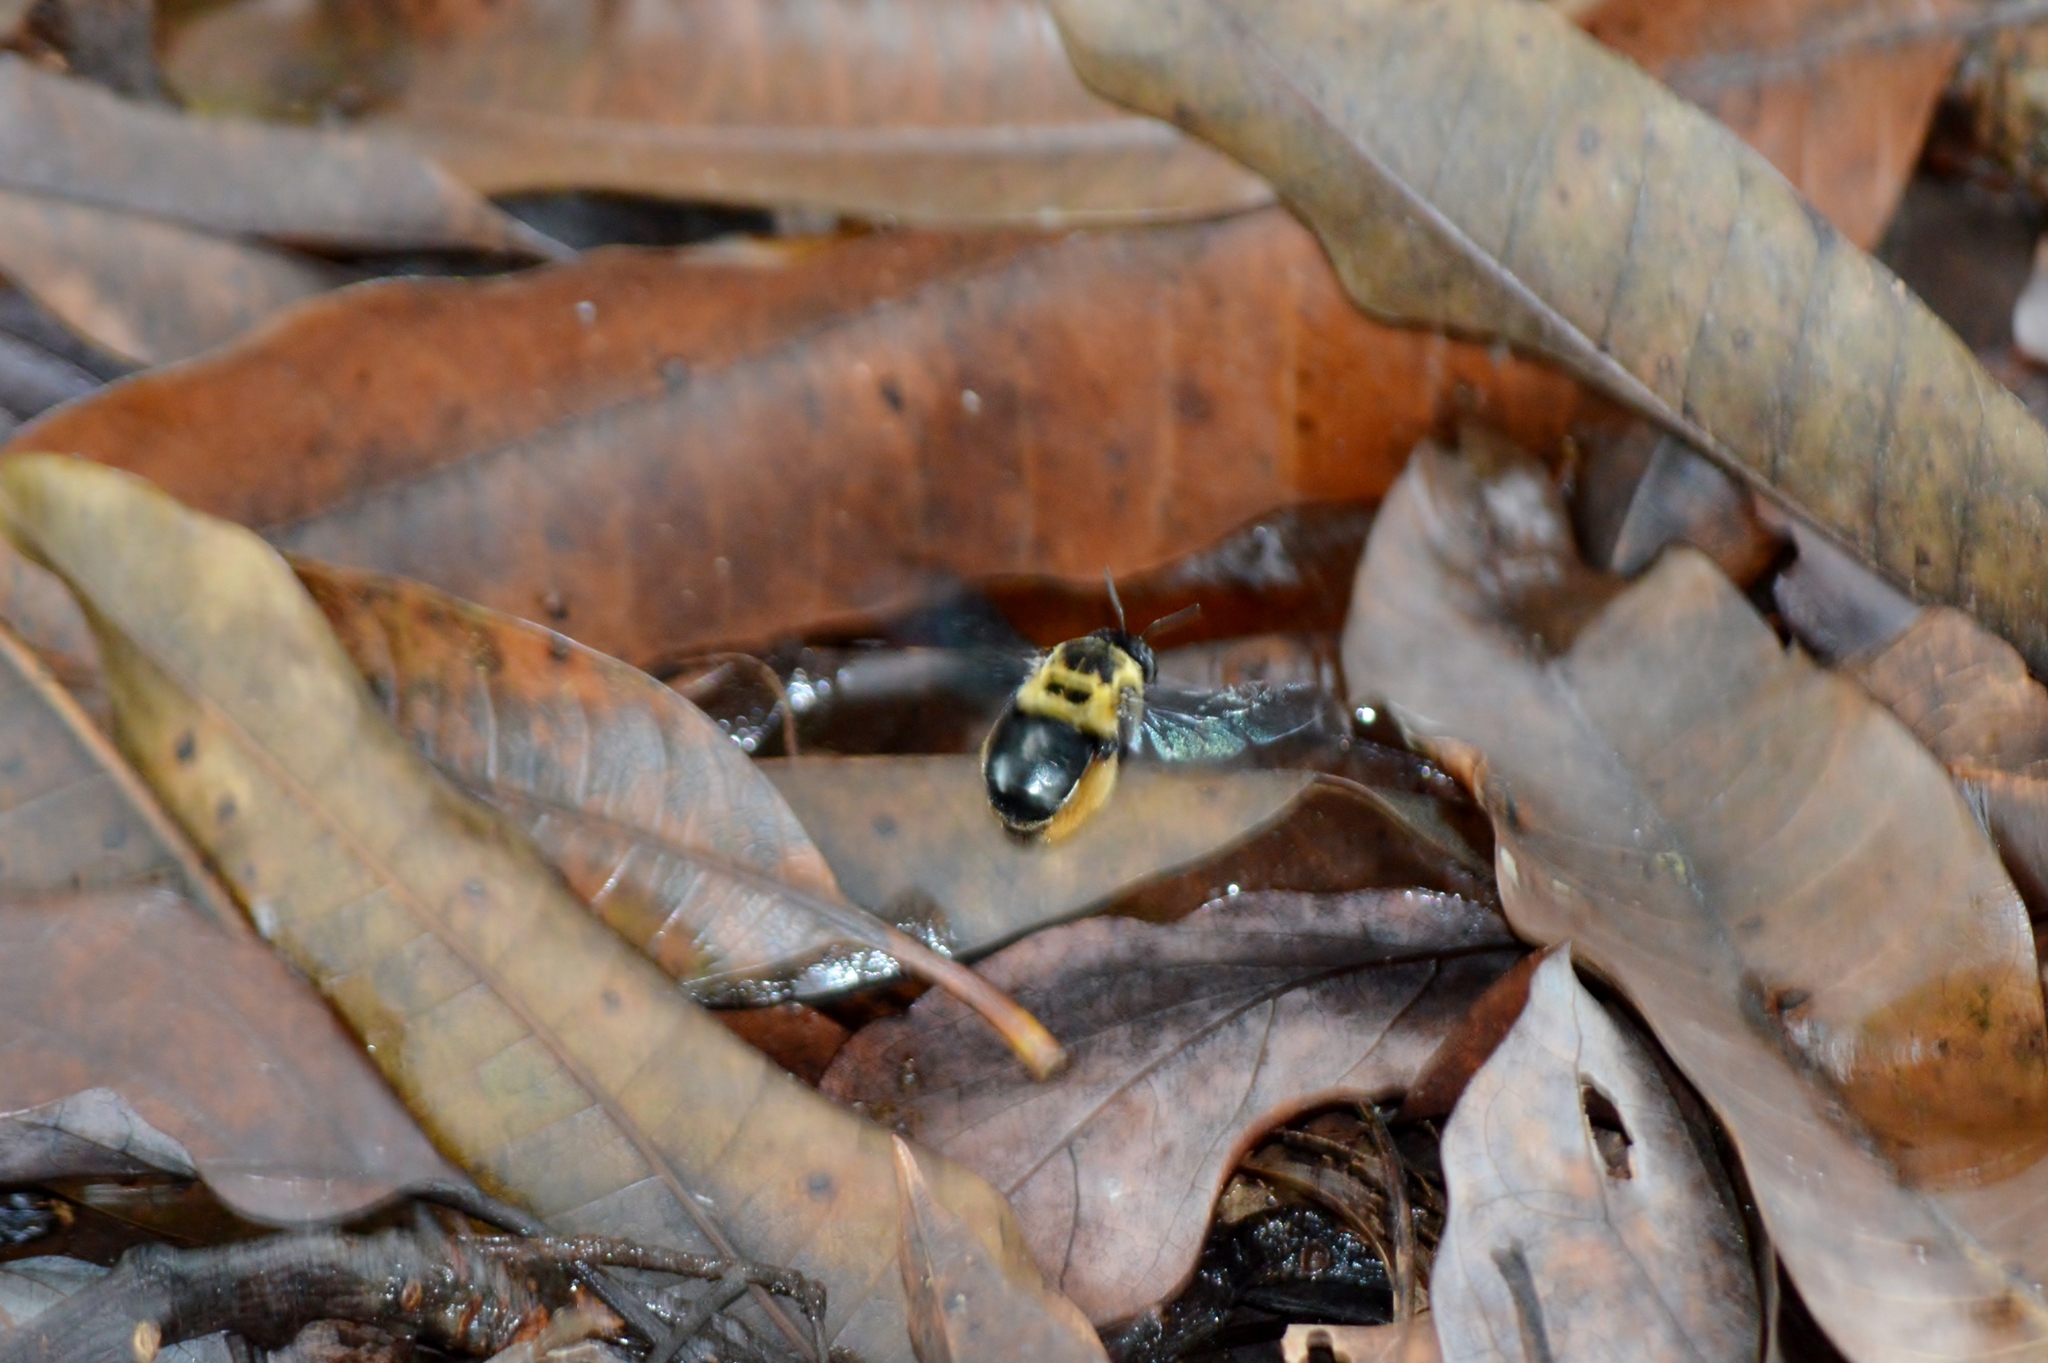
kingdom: Animalia
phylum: Arthropoda
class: Insecta
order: Hymenoptera
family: Apidae
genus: Centris
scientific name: Centris mocsaryi
